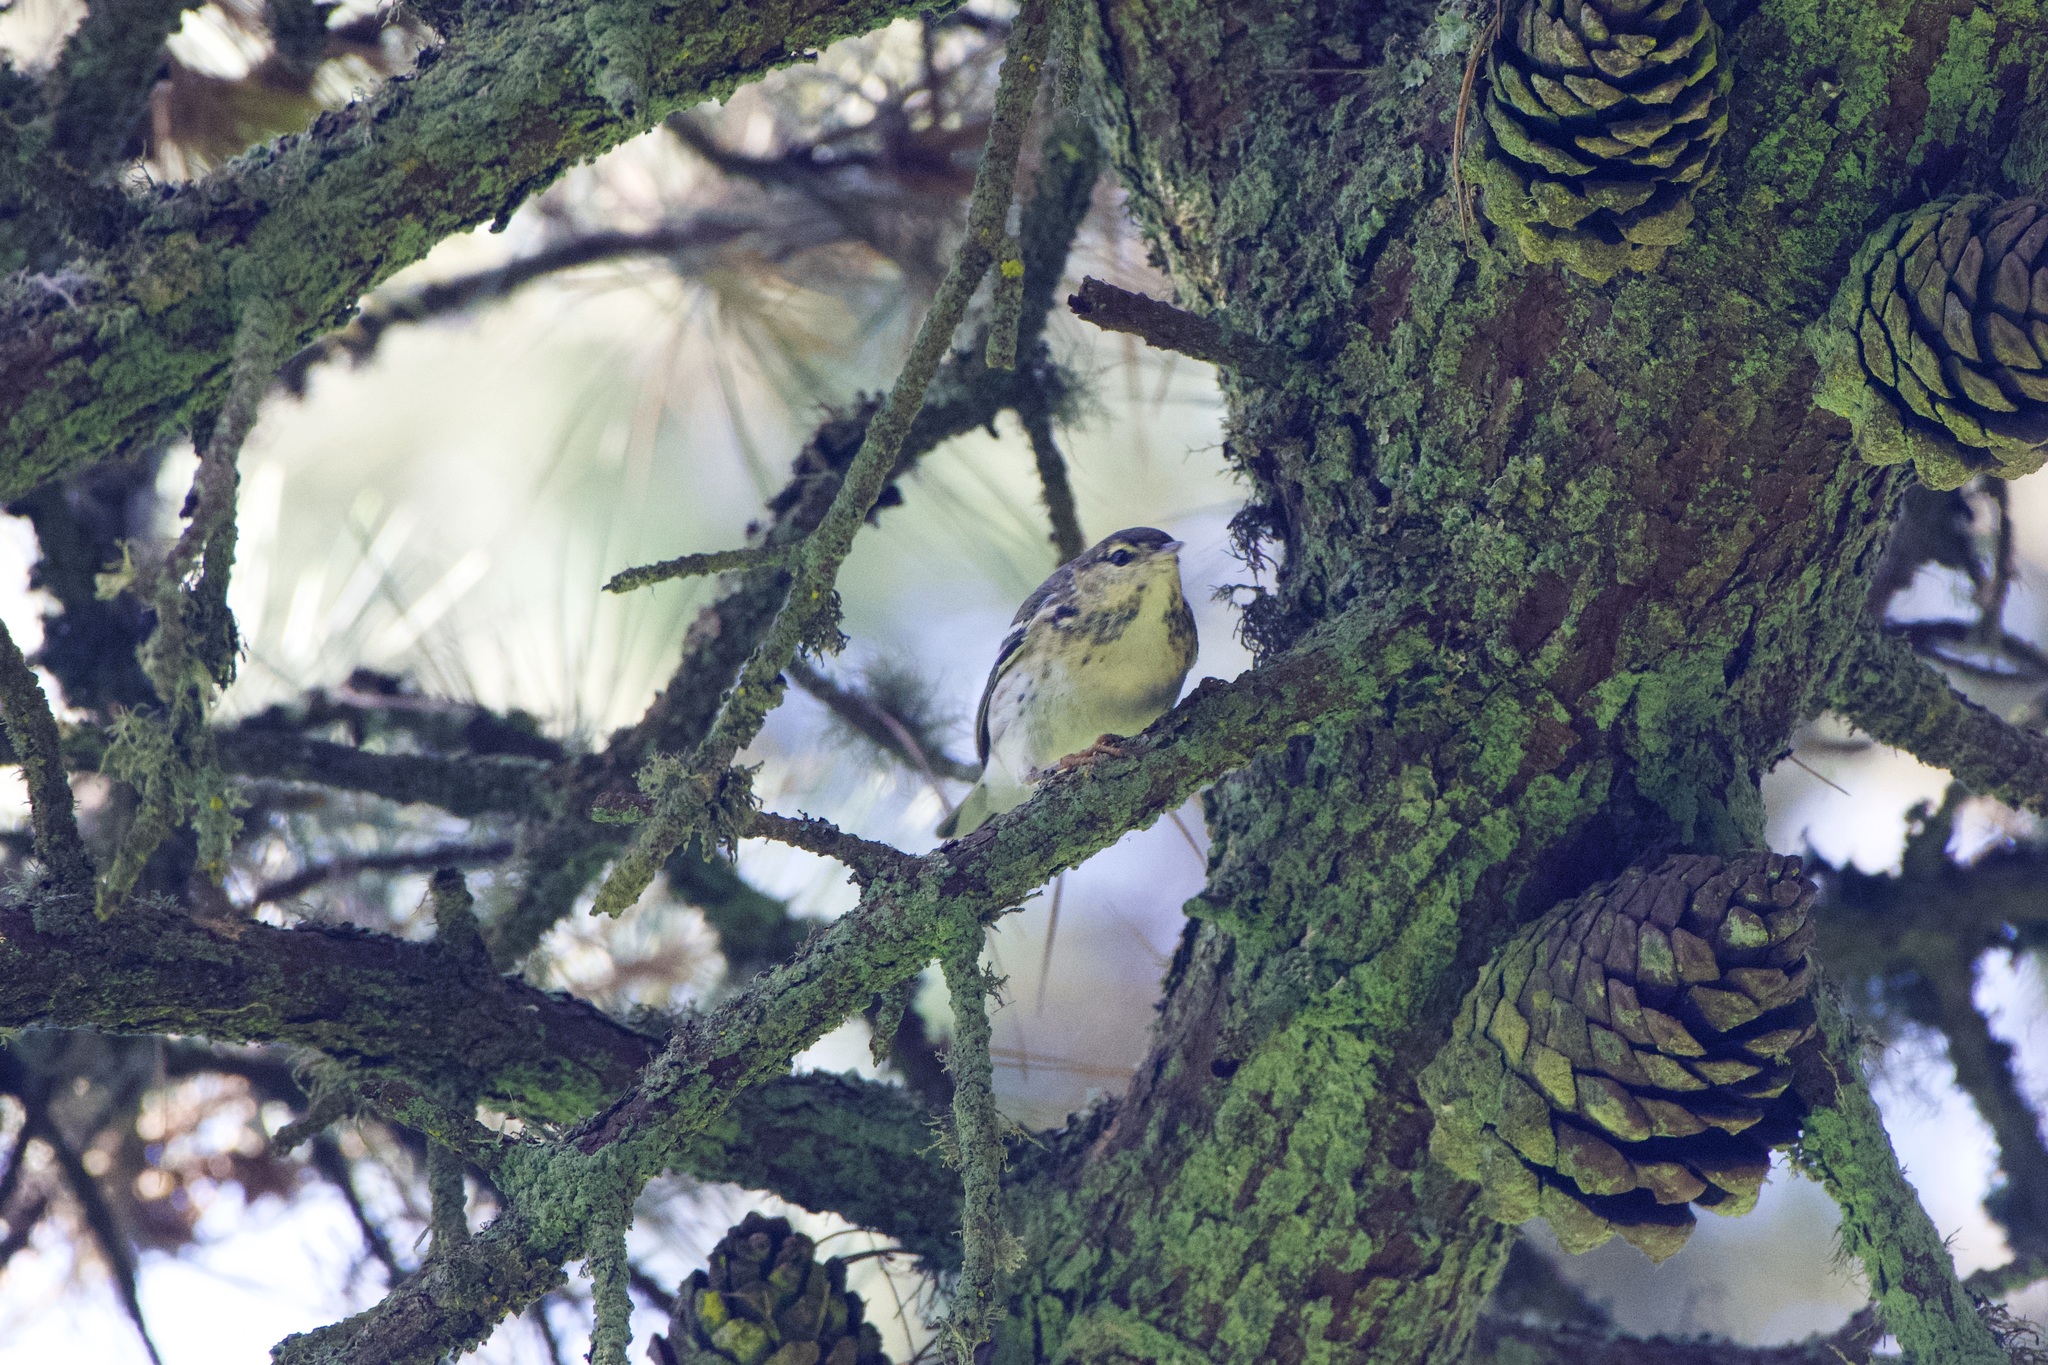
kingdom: Animalia
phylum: Chordata
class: Aves
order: Passeriformes
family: Parulidae
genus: Setophaga
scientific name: Setophaga striata
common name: Blackpoll warbler
